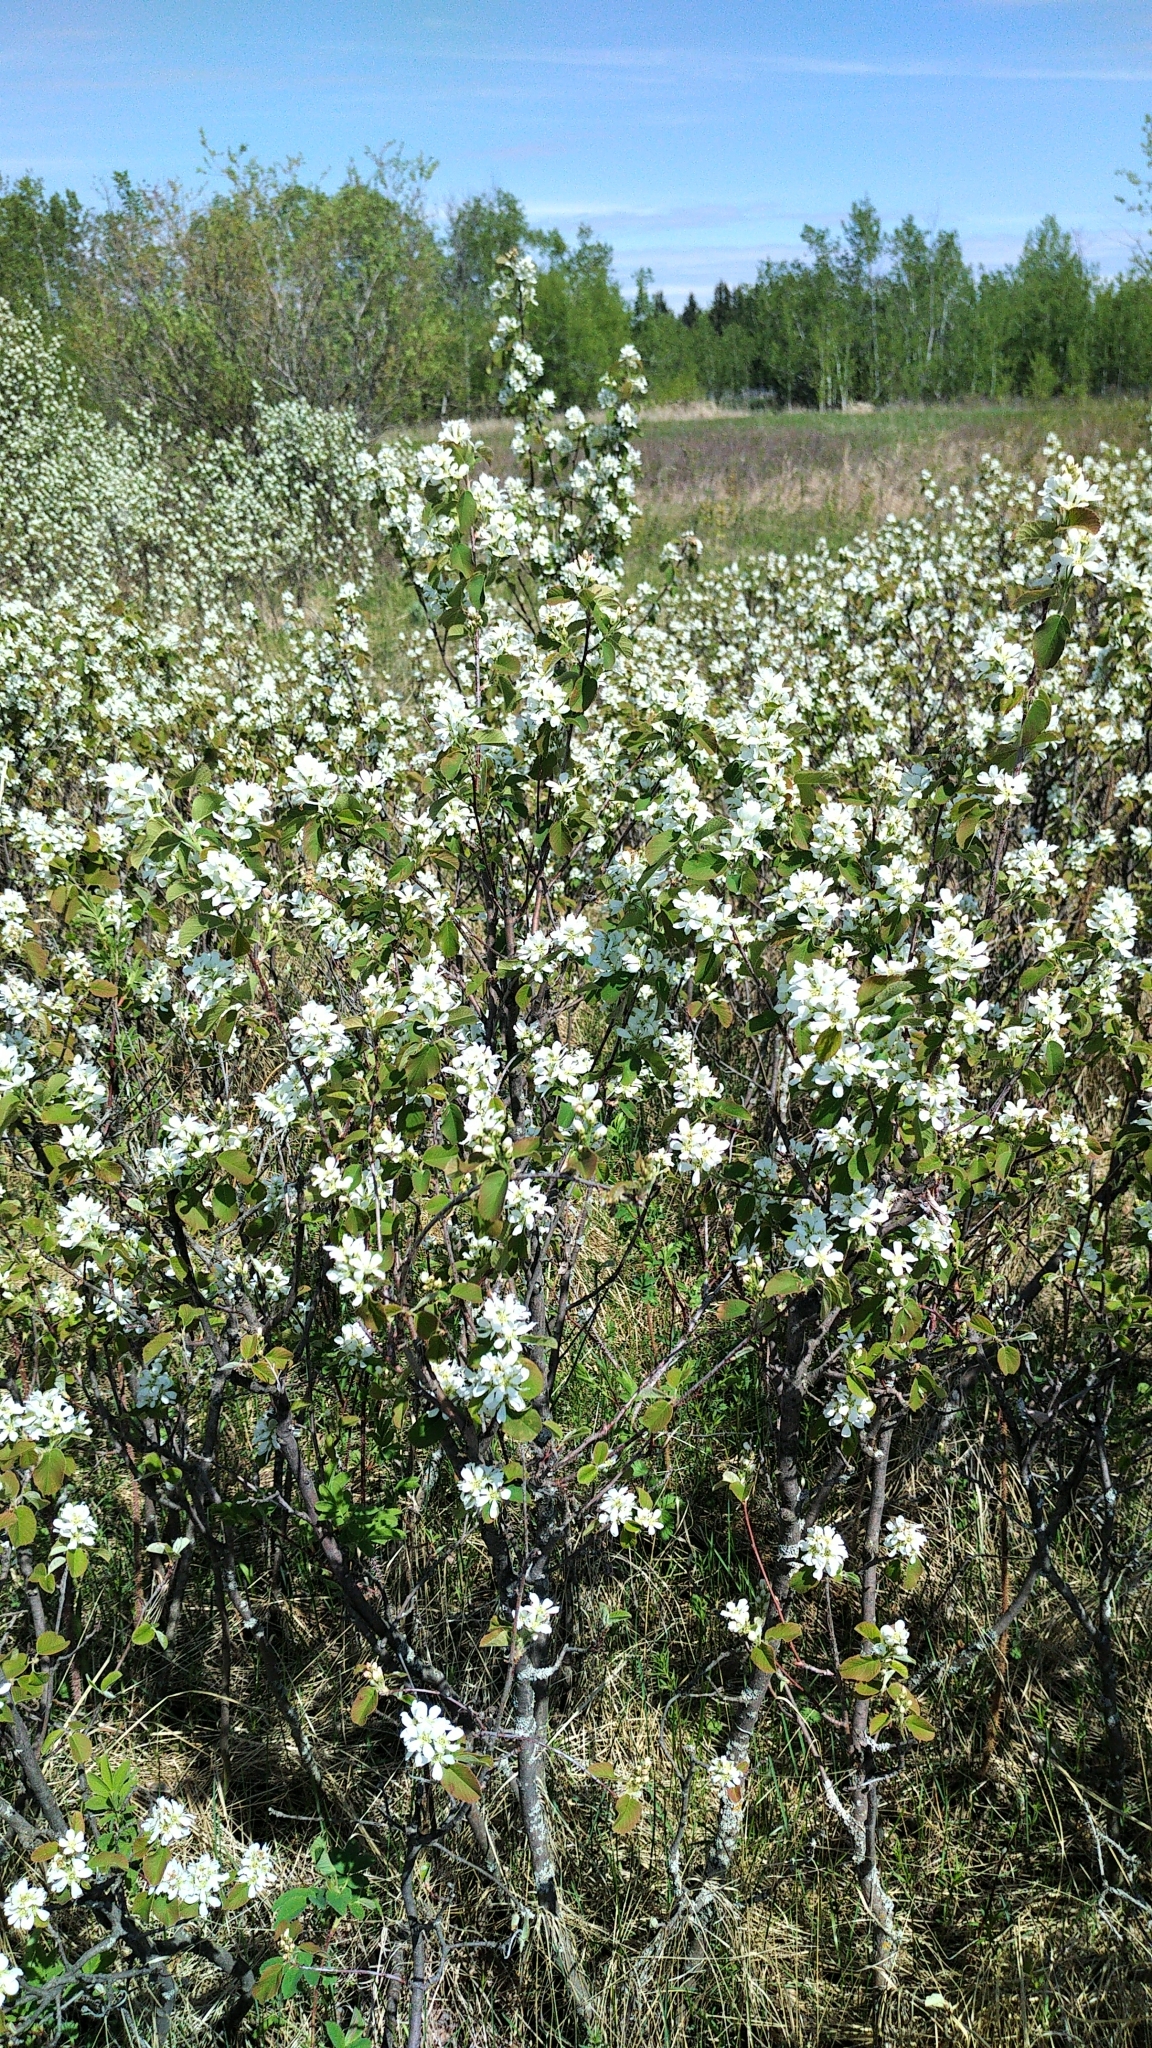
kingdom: Plantae
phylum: Tracheophyta
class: Magnoliopsida
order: Rosales
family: Rosaceae
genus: Amelanchier
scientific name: Amelanchier alnifolia
